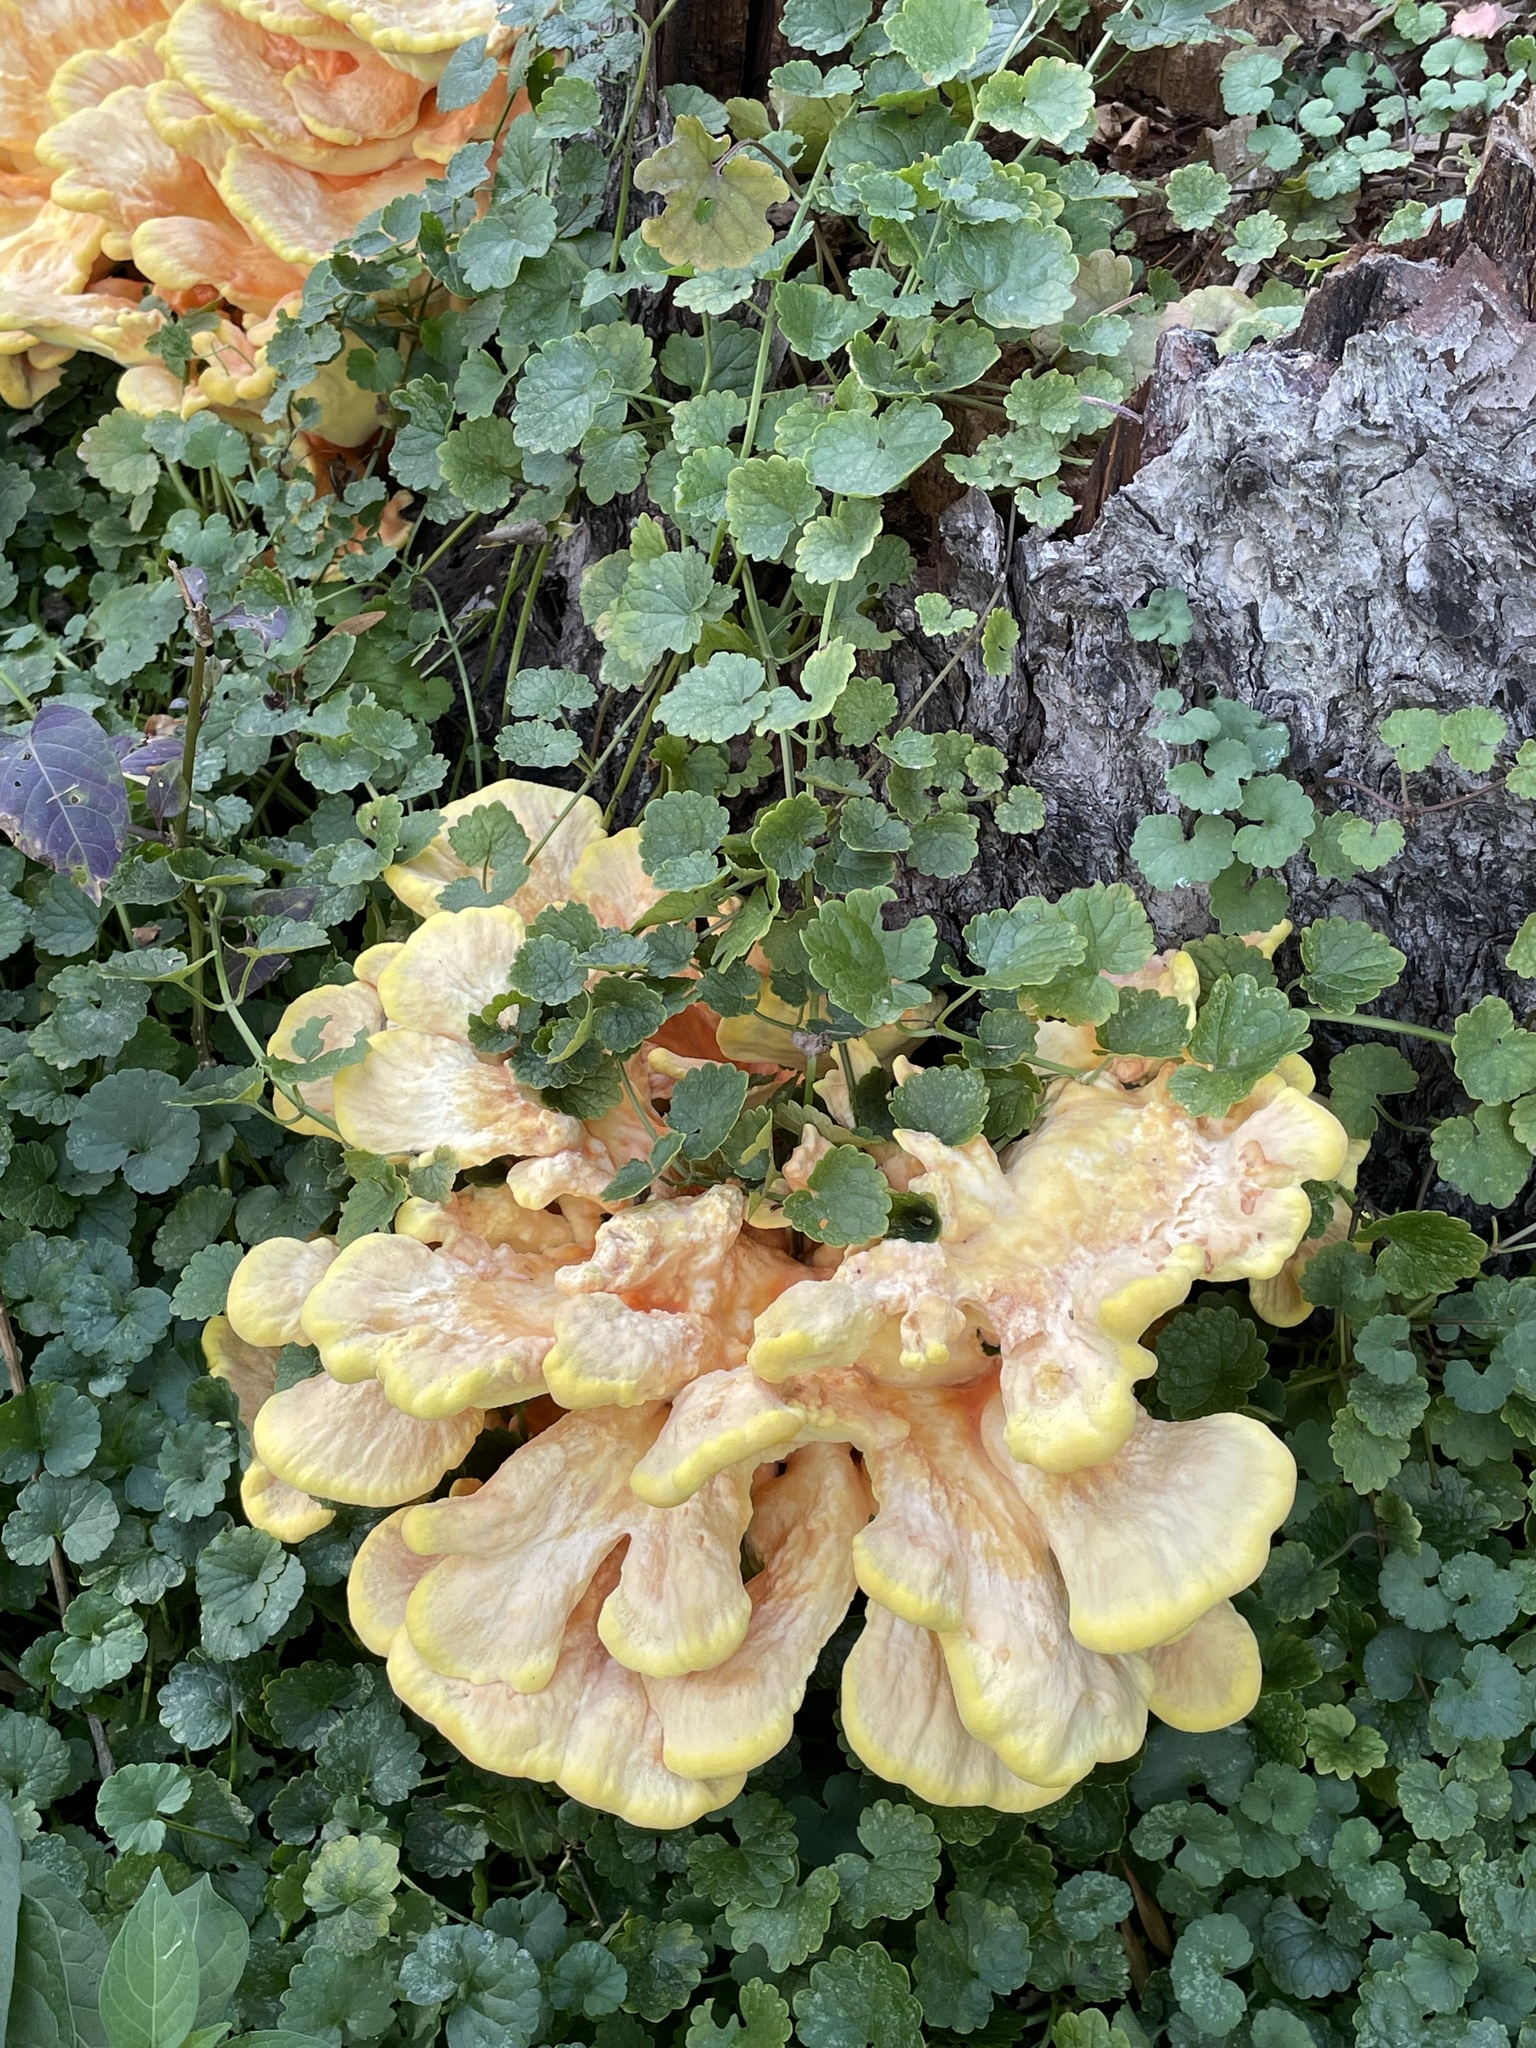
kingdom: Fungi
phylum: Basidiomycota
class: Agaricomycetes
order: Polyporales
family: Laetiporaceae
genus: Laetiporus
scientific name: Laetiporus sulphureus
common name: Chicken of the woods
